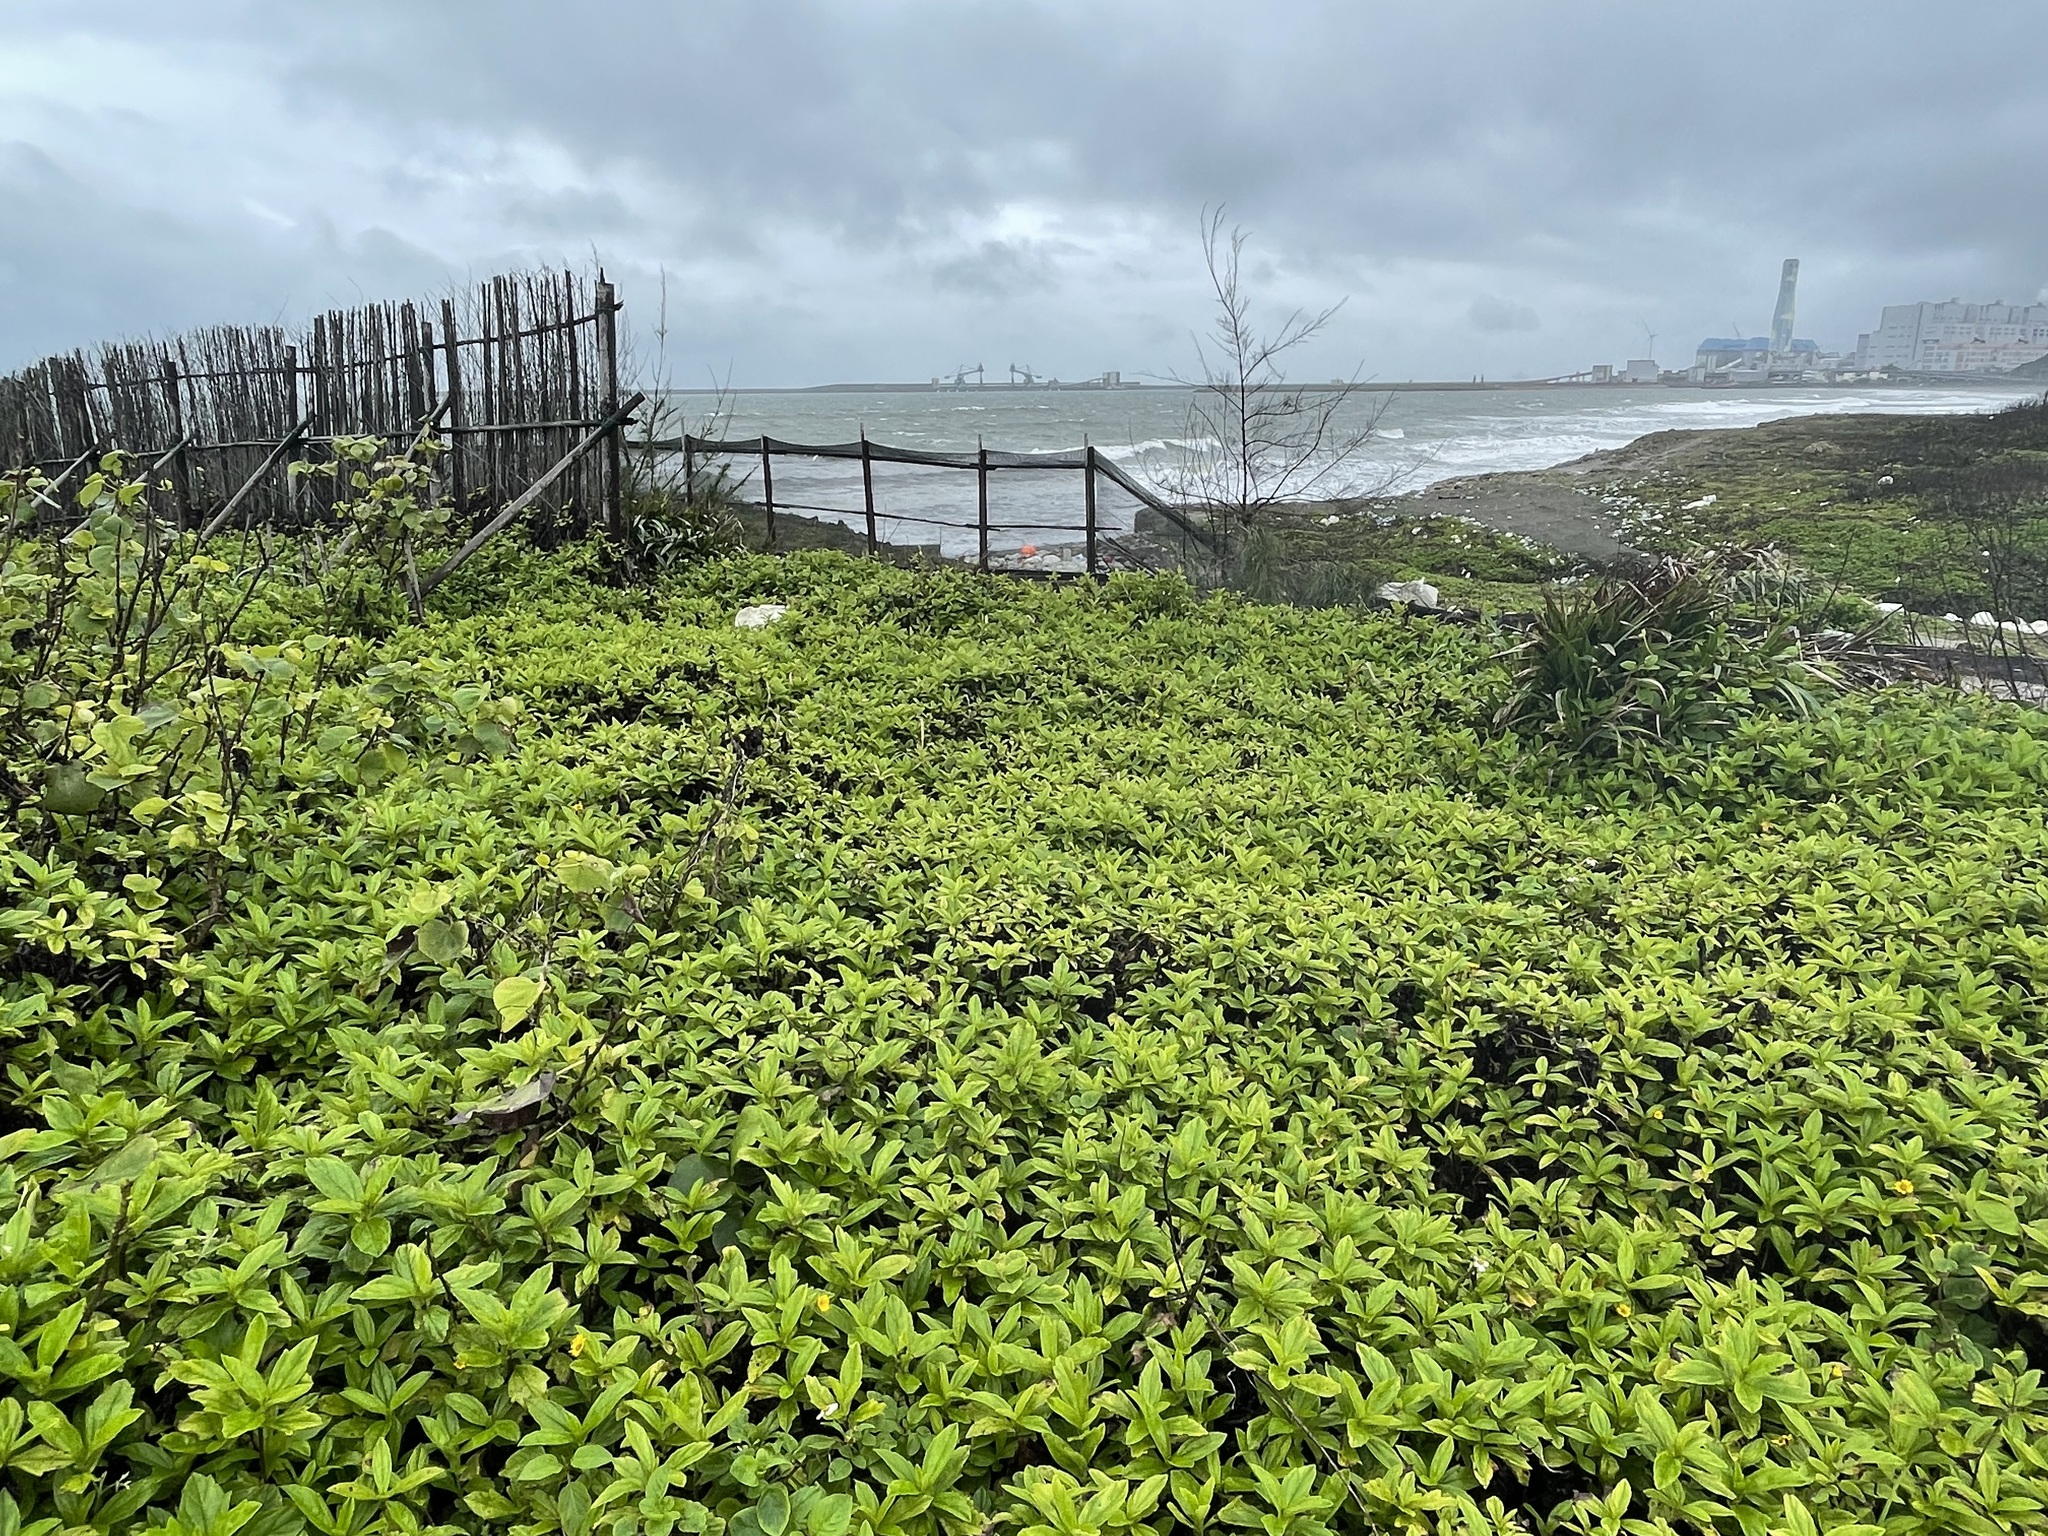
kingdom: Plantae
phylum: Tracheophyta
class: Magnoliopsida
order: Asterales
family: Asteraceae
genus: Sphagneticola
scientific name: Sphagneticola trilobata
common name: Bay biscayne creeping-oxeye
